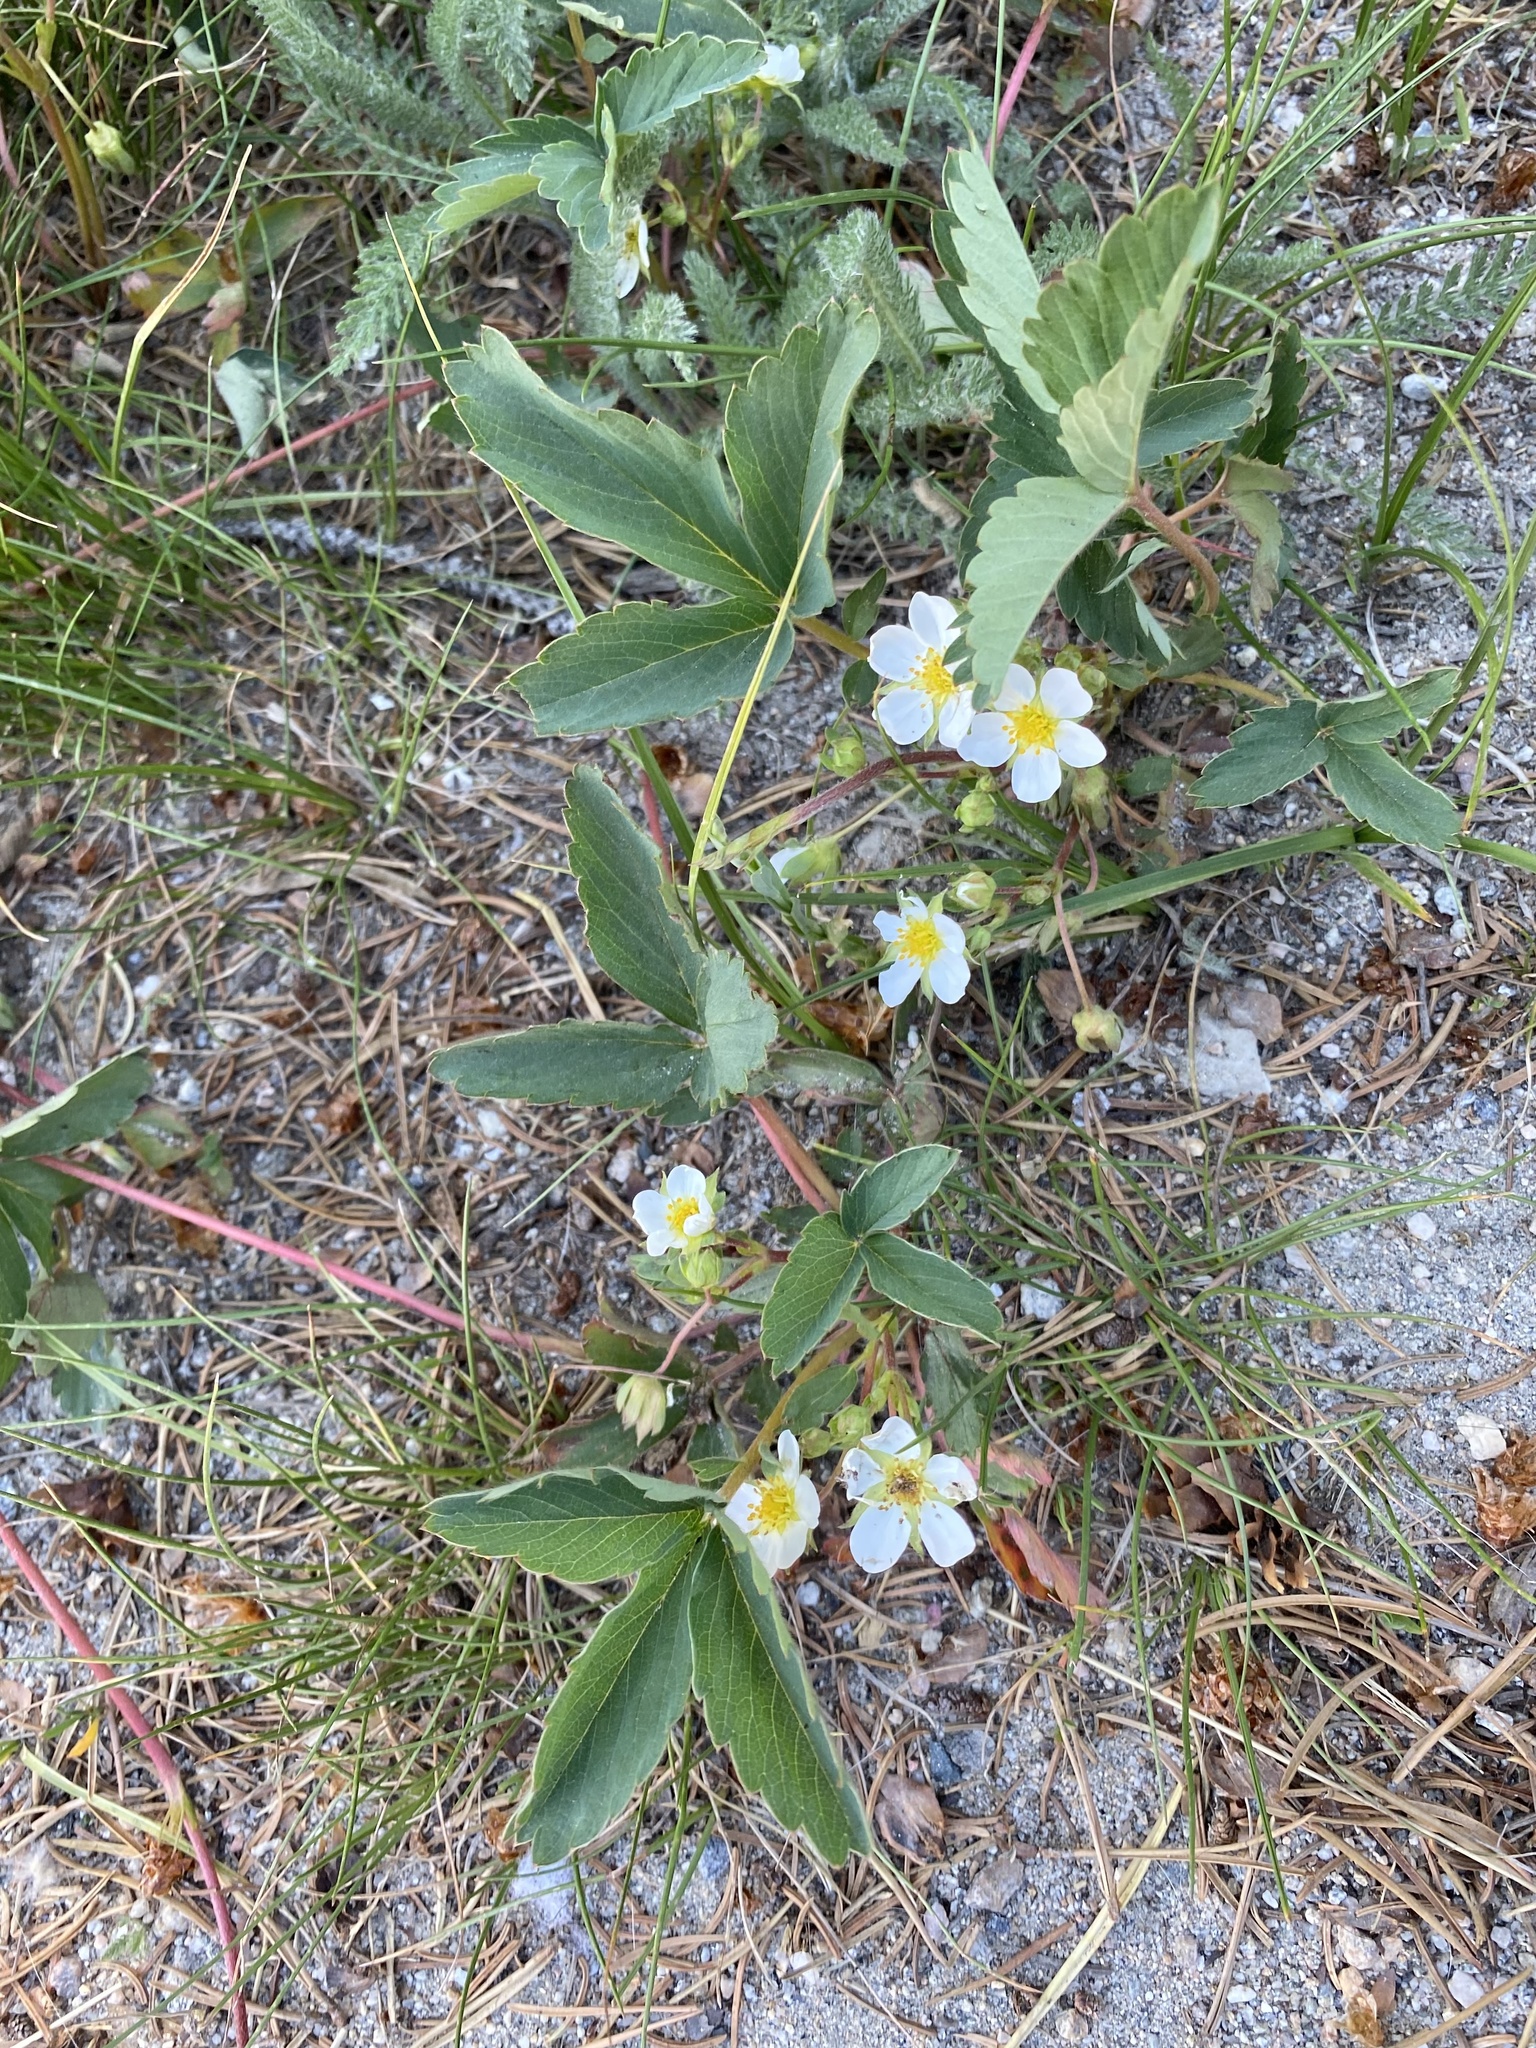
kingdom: Plantae
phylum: Tracheophyta
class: Magnoliopsida
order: Rosales
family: Rosaceae
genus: Fragaria
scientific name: Fragaria virginiana
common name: Thickleaved wild strawberry
